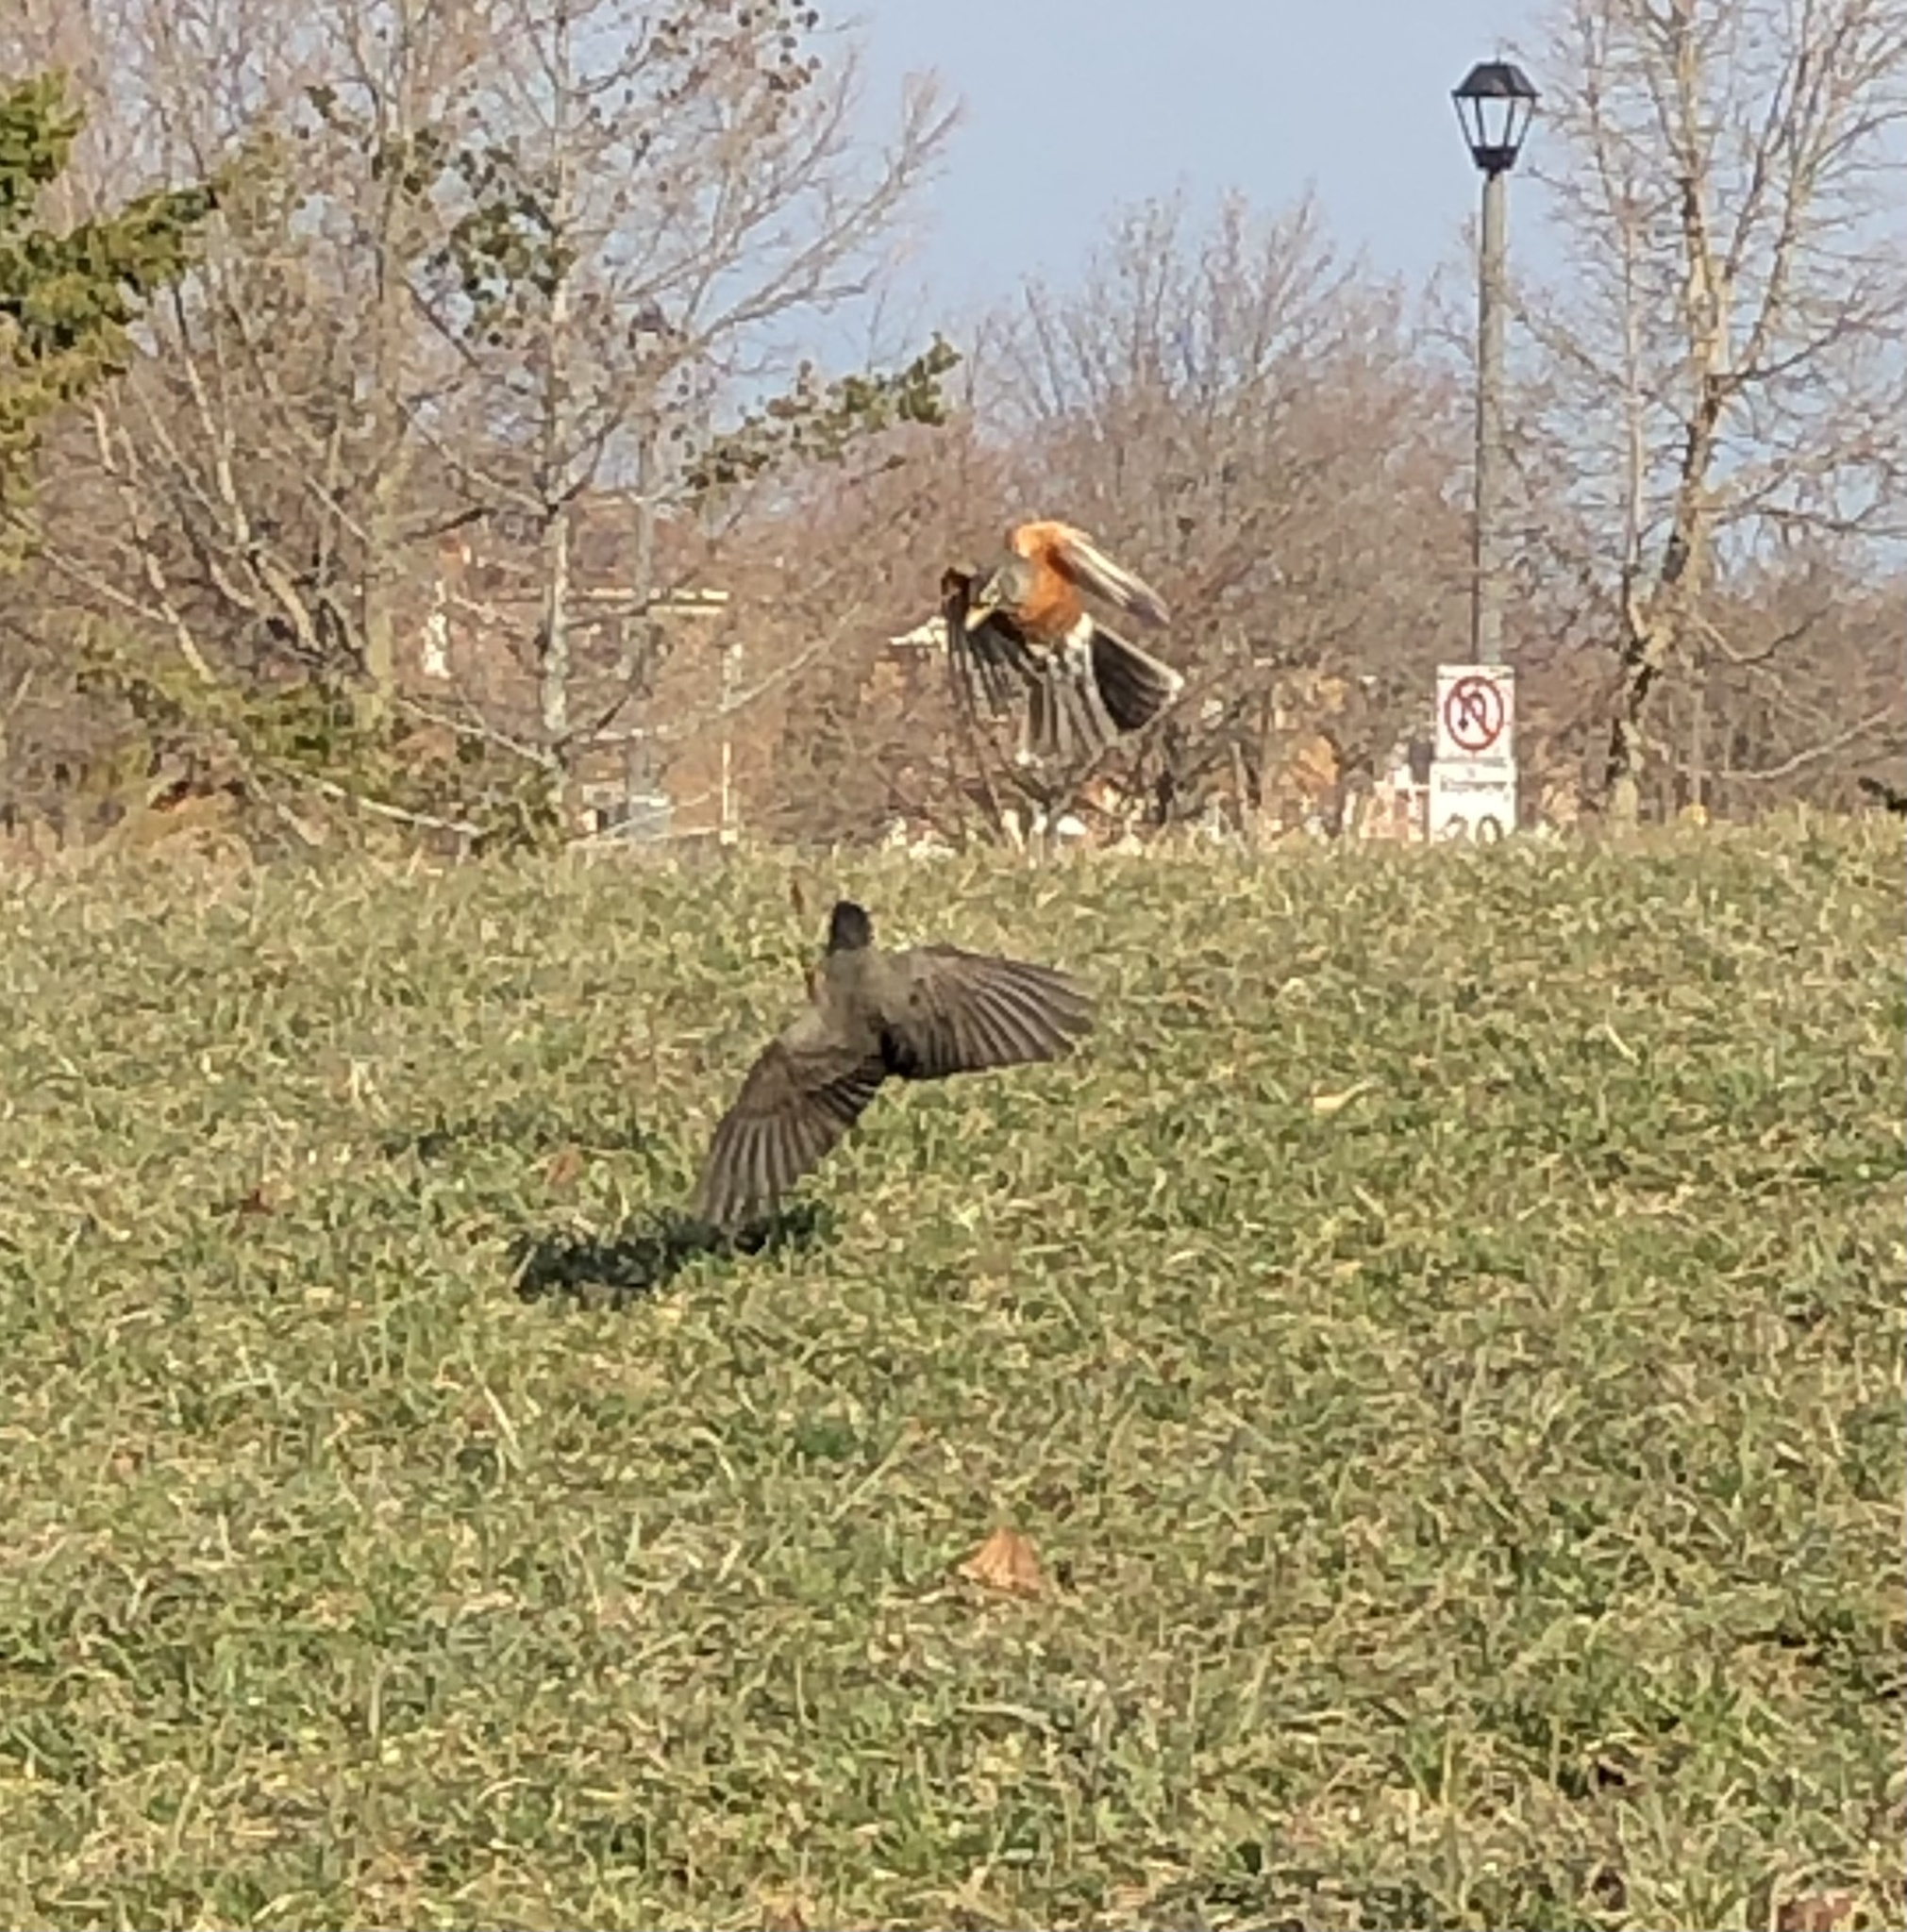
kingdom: Animalia
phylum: Chordata
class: Aves
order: Passeriformes
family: Turdidae
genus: Turdus
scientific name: Turdus migratorius
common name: American robin
